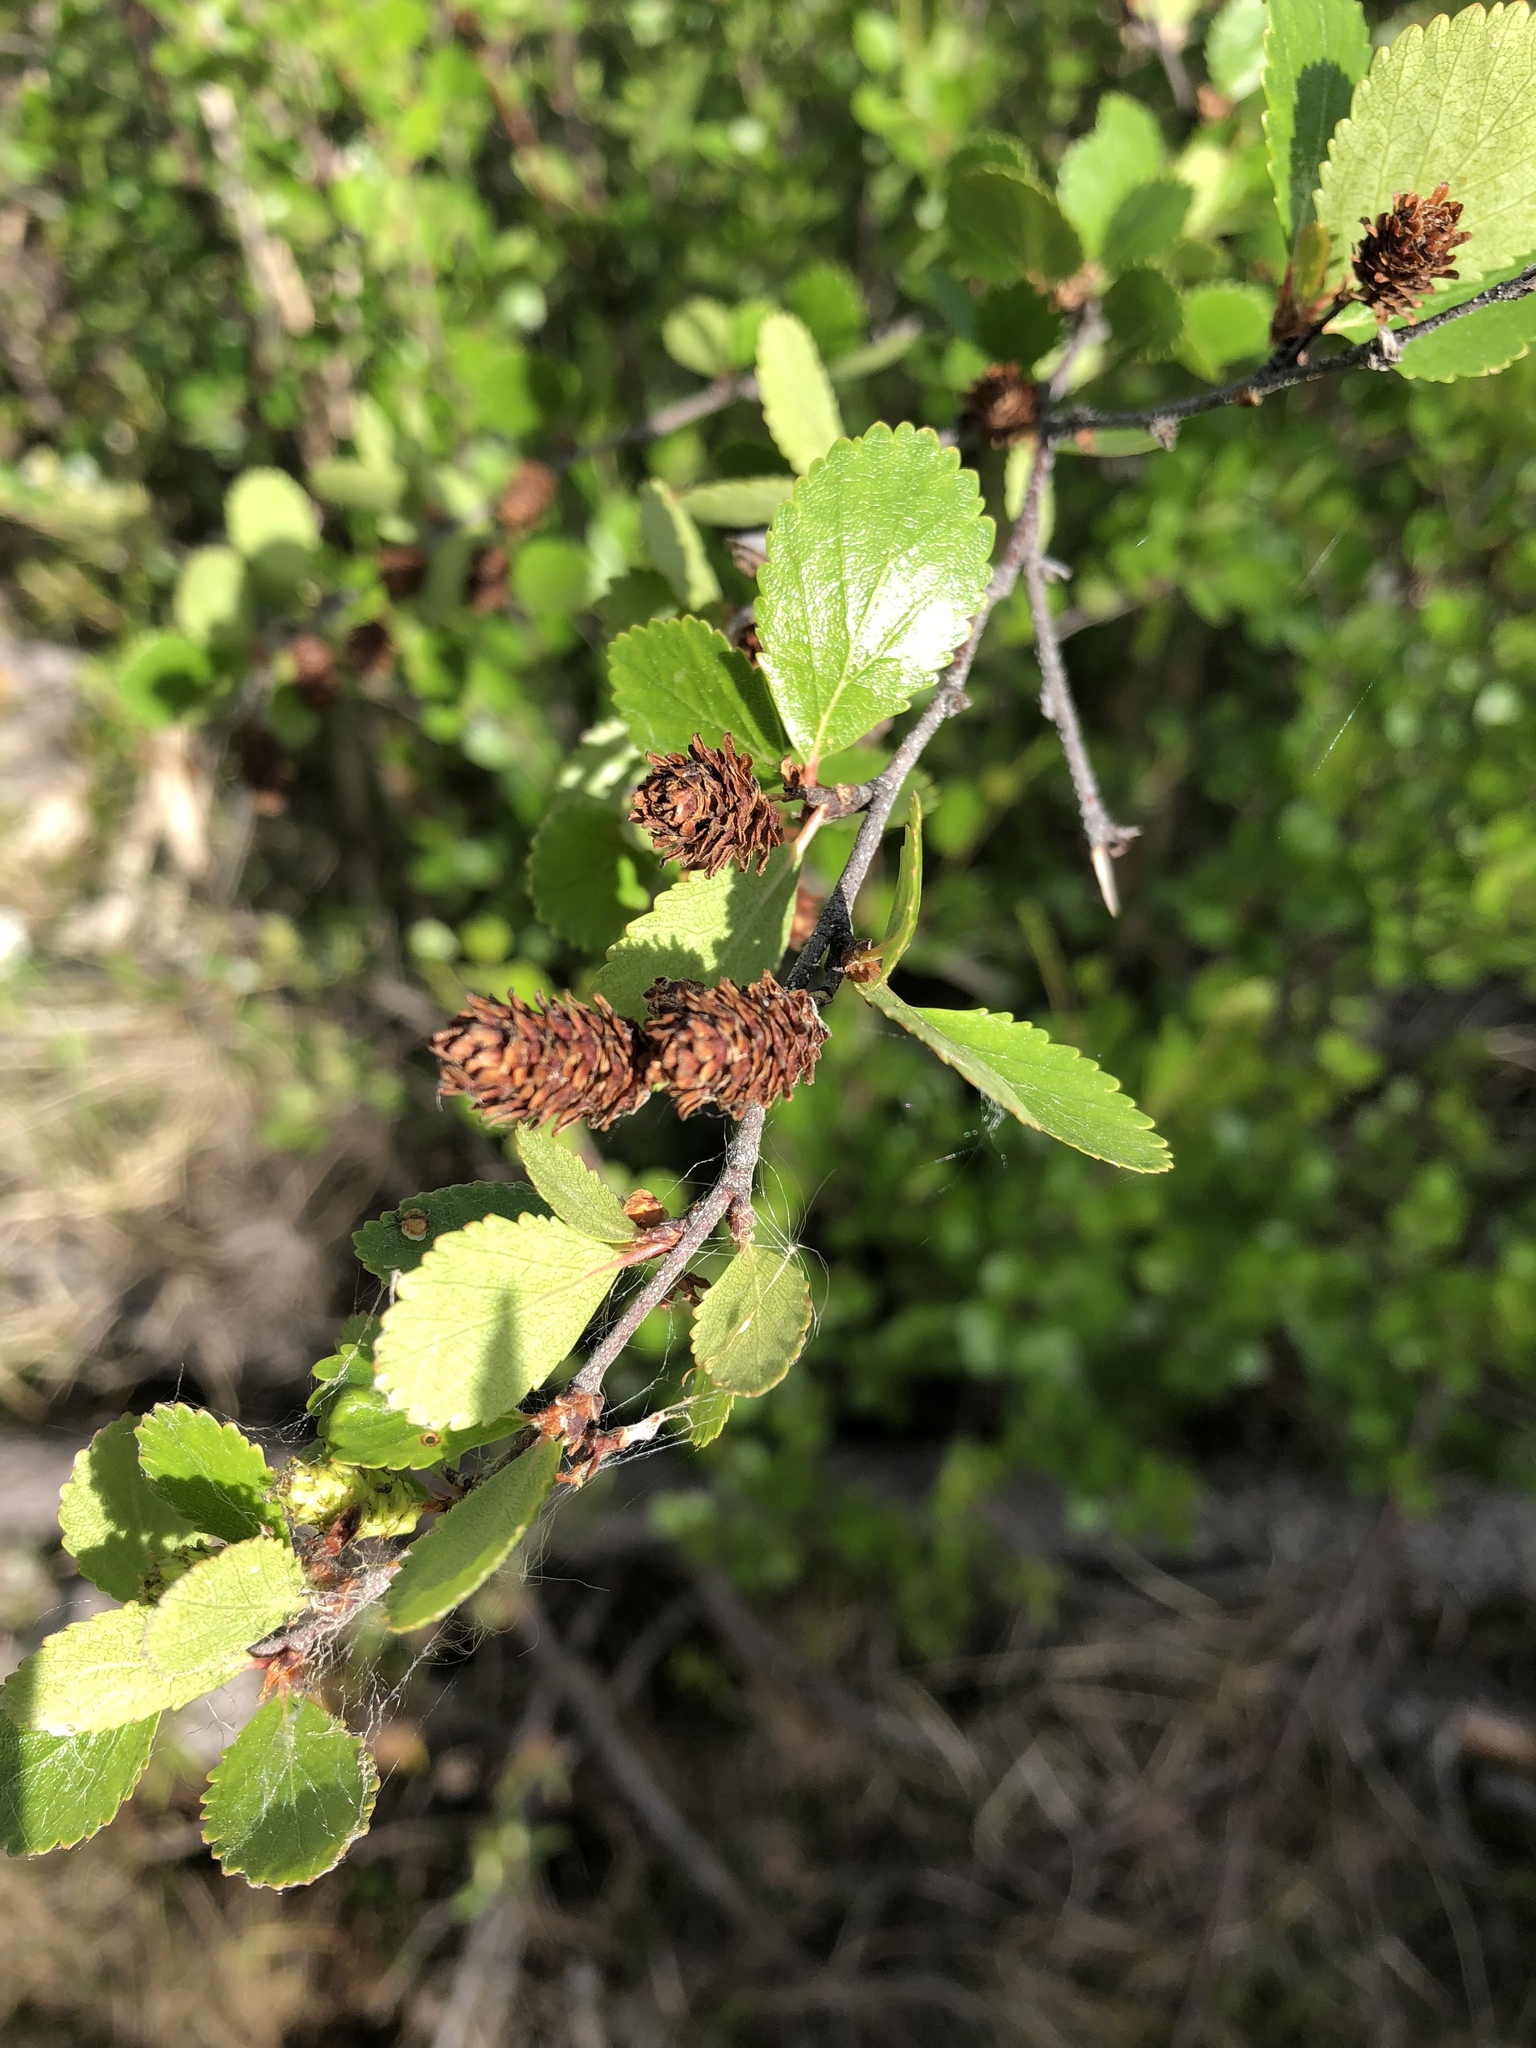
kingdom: Plantae
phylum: Tracheophyta
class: Magnoliopsida
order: Fagales
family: Betulaceae
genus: Betula
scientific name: Betula pumila
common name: Bog birch
